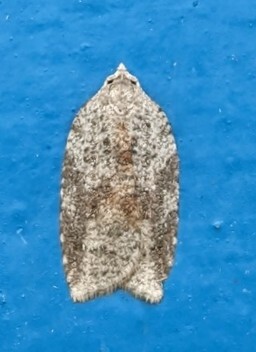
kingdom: Animalia
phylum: Arthropoda
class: Insecta
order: Lepidoptera
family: Tortricidae
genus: Amorbia
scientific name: Amorbia humerosana
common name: White-lined leafroller moth
